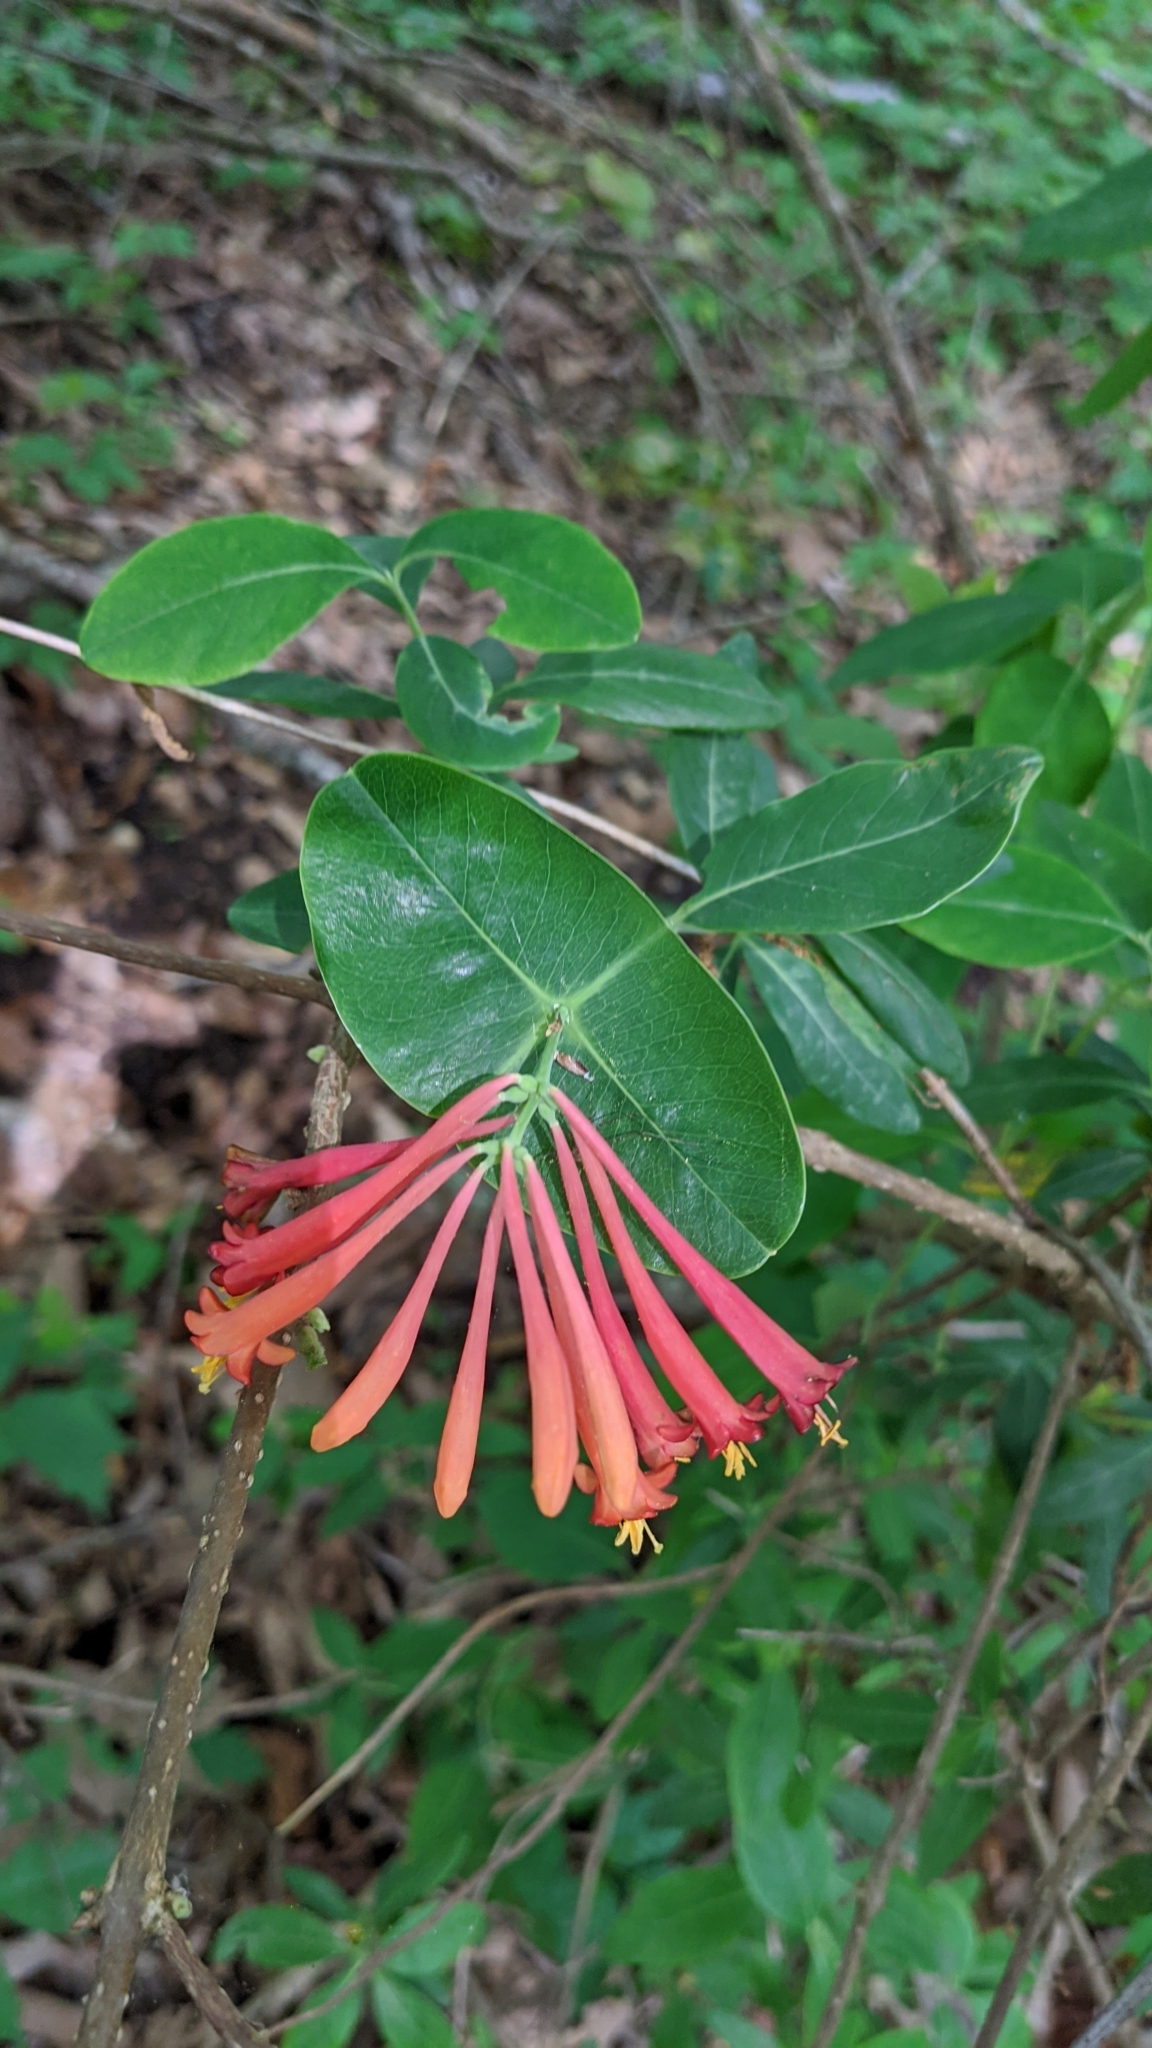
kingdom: Plantae
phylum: Tracheophyta
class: Magnoliopsida
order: Dipsacales
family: Caprifoliaceae
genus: Lonicera
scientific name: Lonicera sempervirens
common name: Coral honeysuckle
